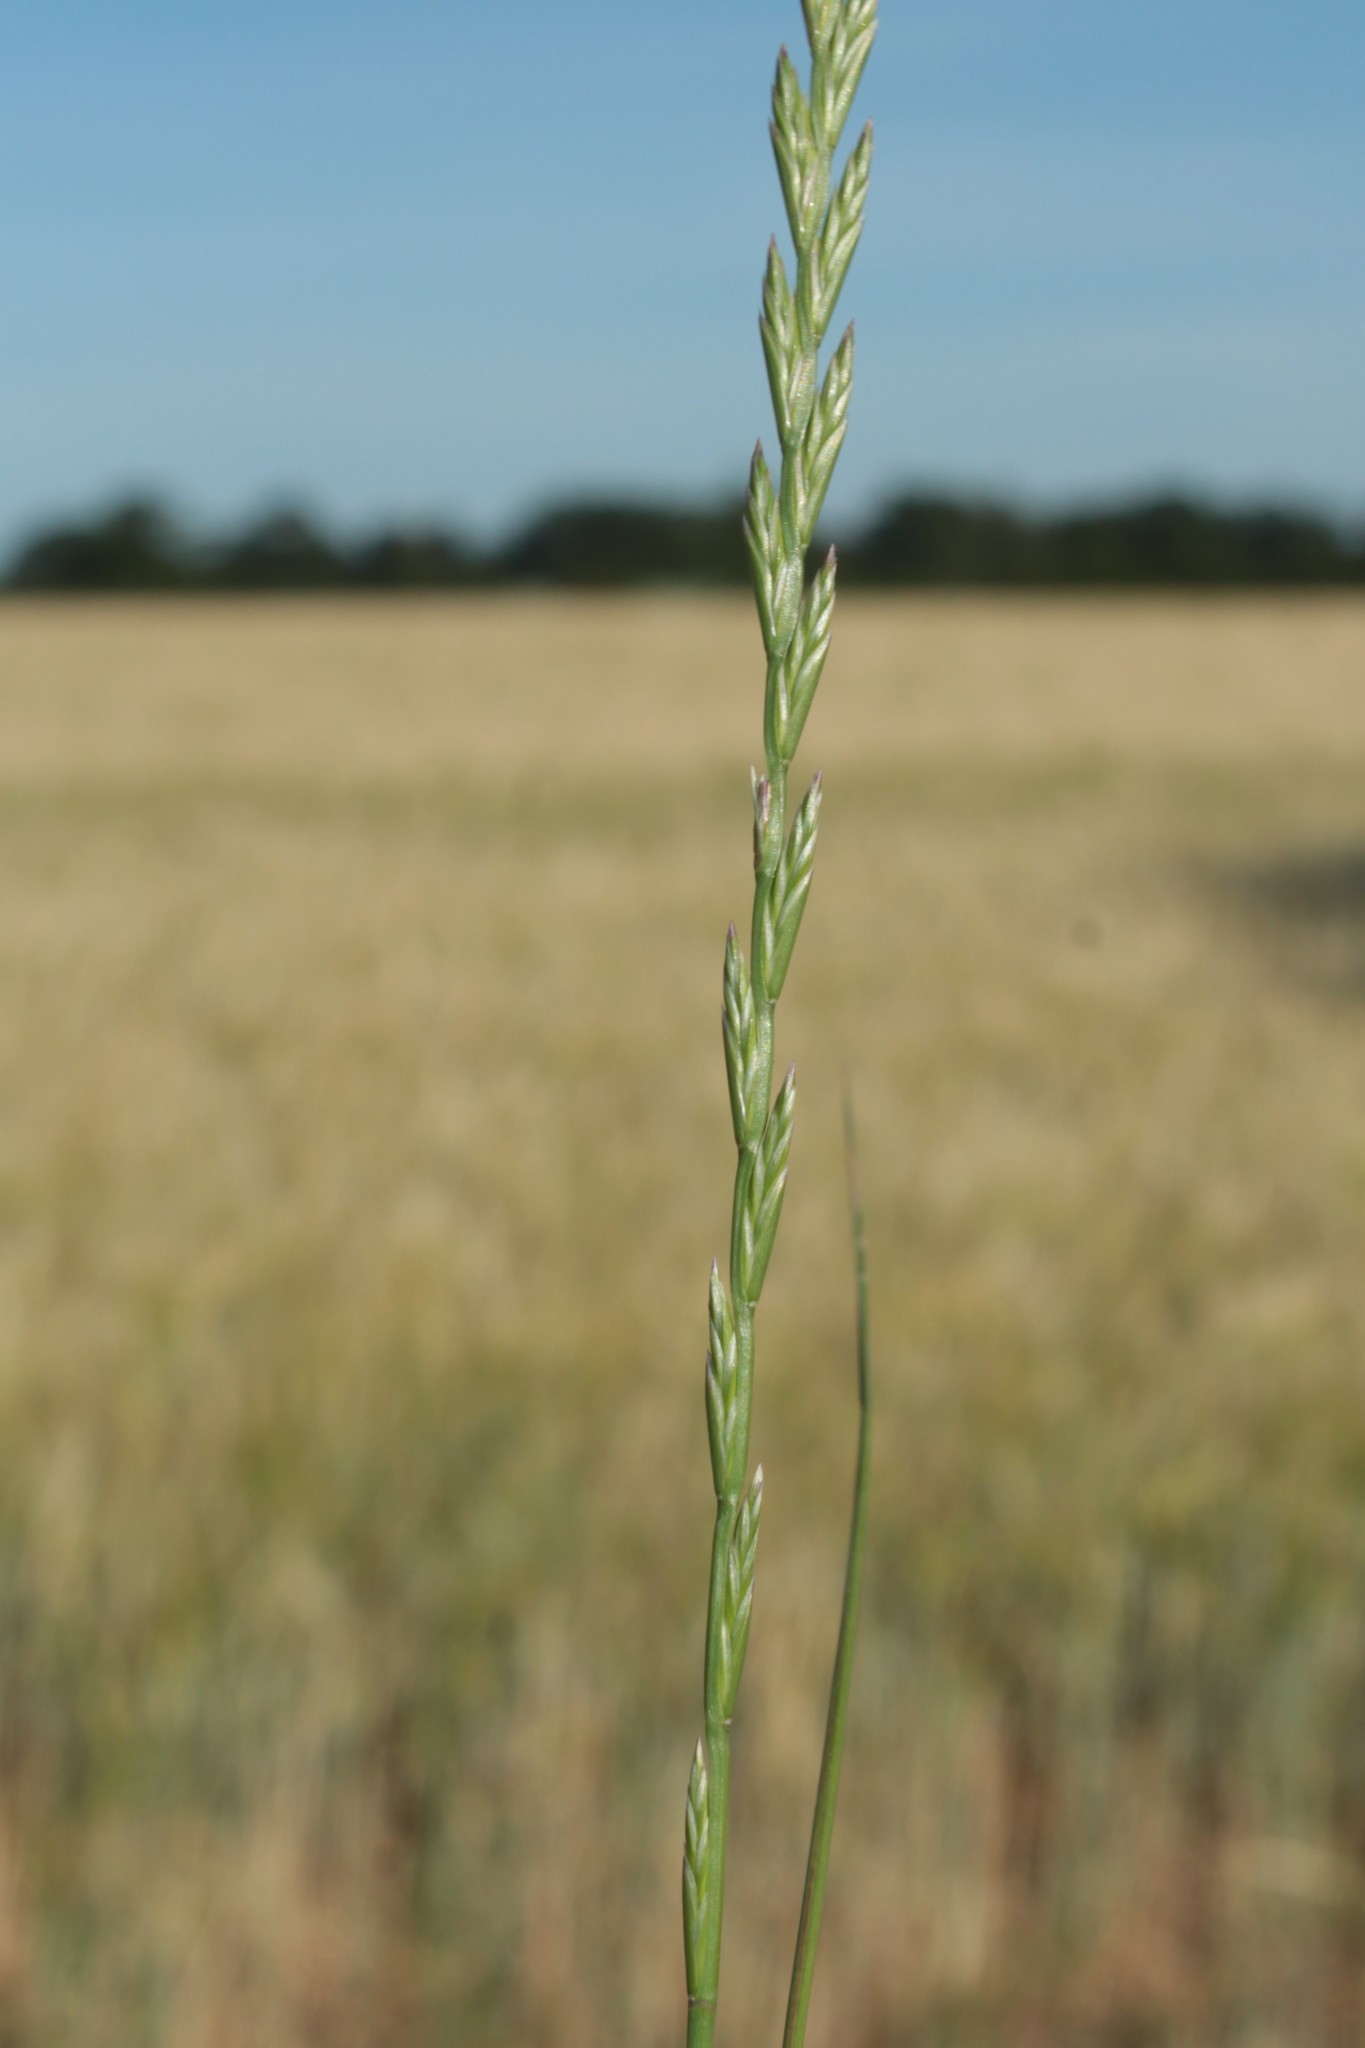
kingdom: Plantae
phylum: Tracheophyta
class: Liliopsida
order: Poales
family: Poaceae
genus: Lolium
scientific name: Lolium perenne
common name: Perennial ryegrass
